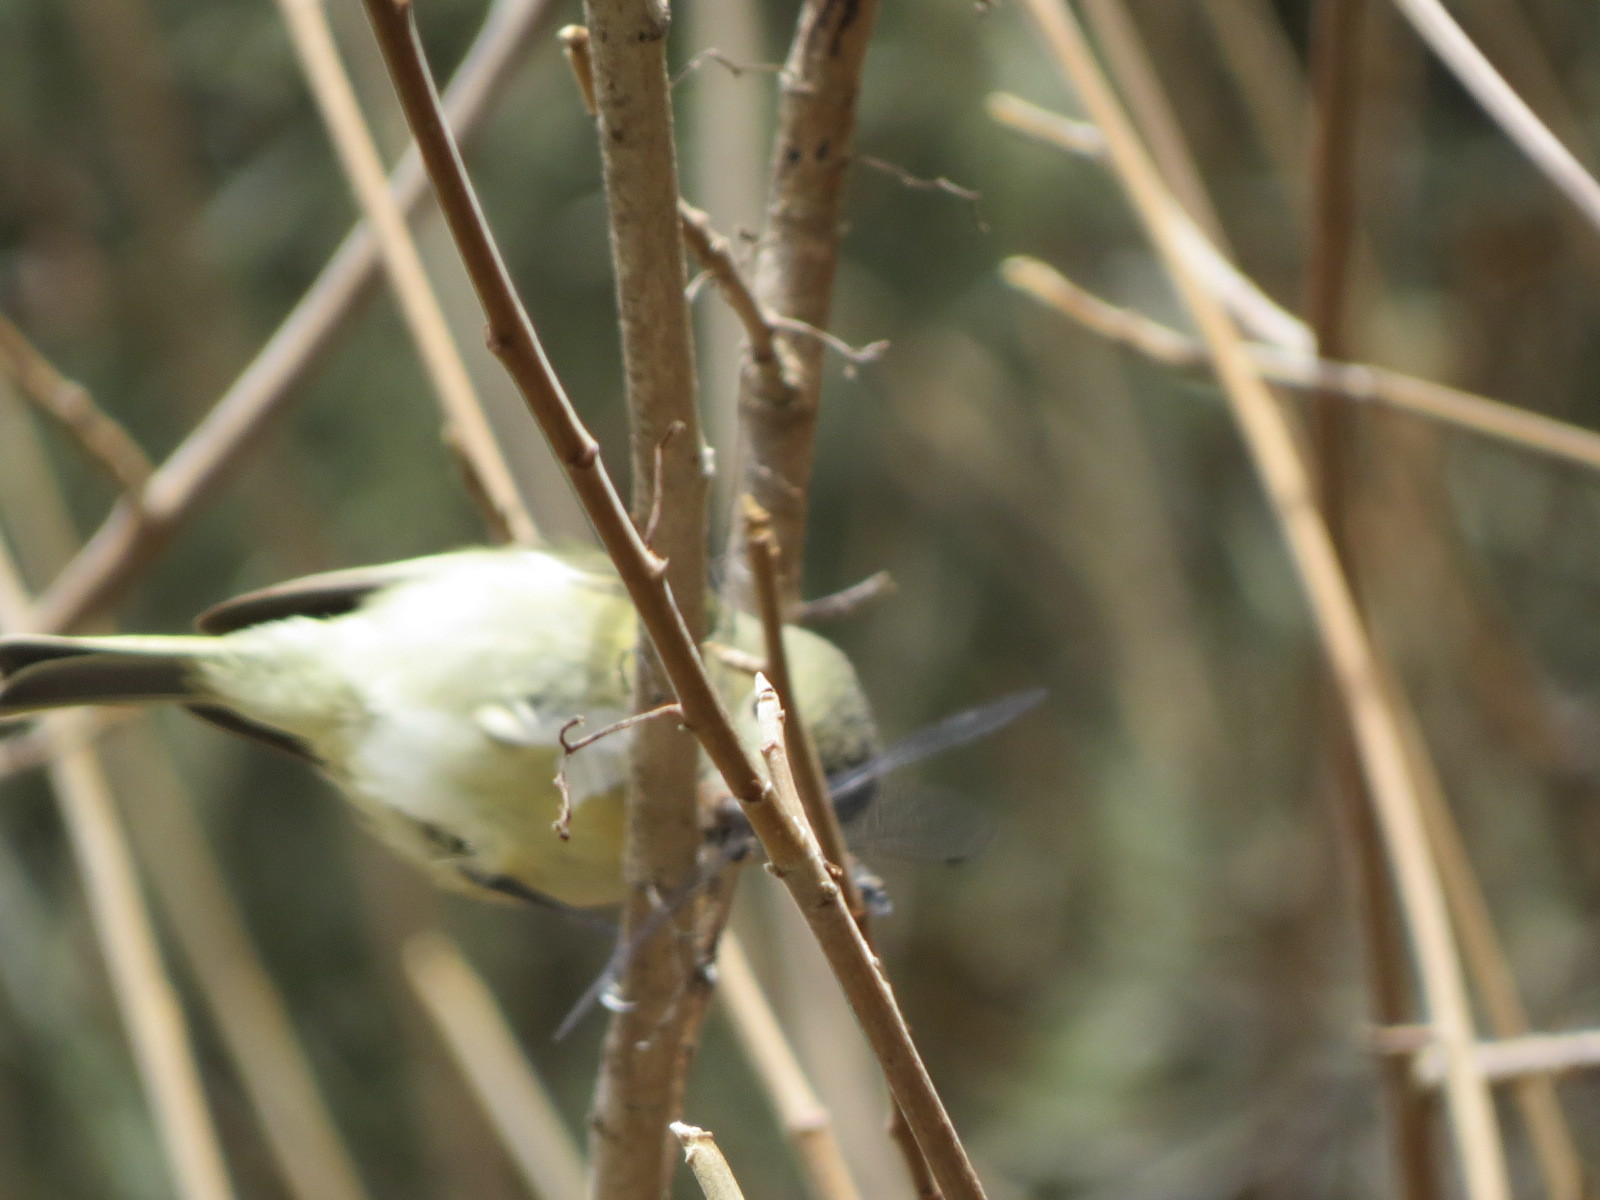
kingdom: Animalia
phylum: Chordata
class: Aves
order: Passeriformes
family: Vireonidae
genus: Vireo
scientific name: Vireo huttoni
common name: Hutton's vireo
